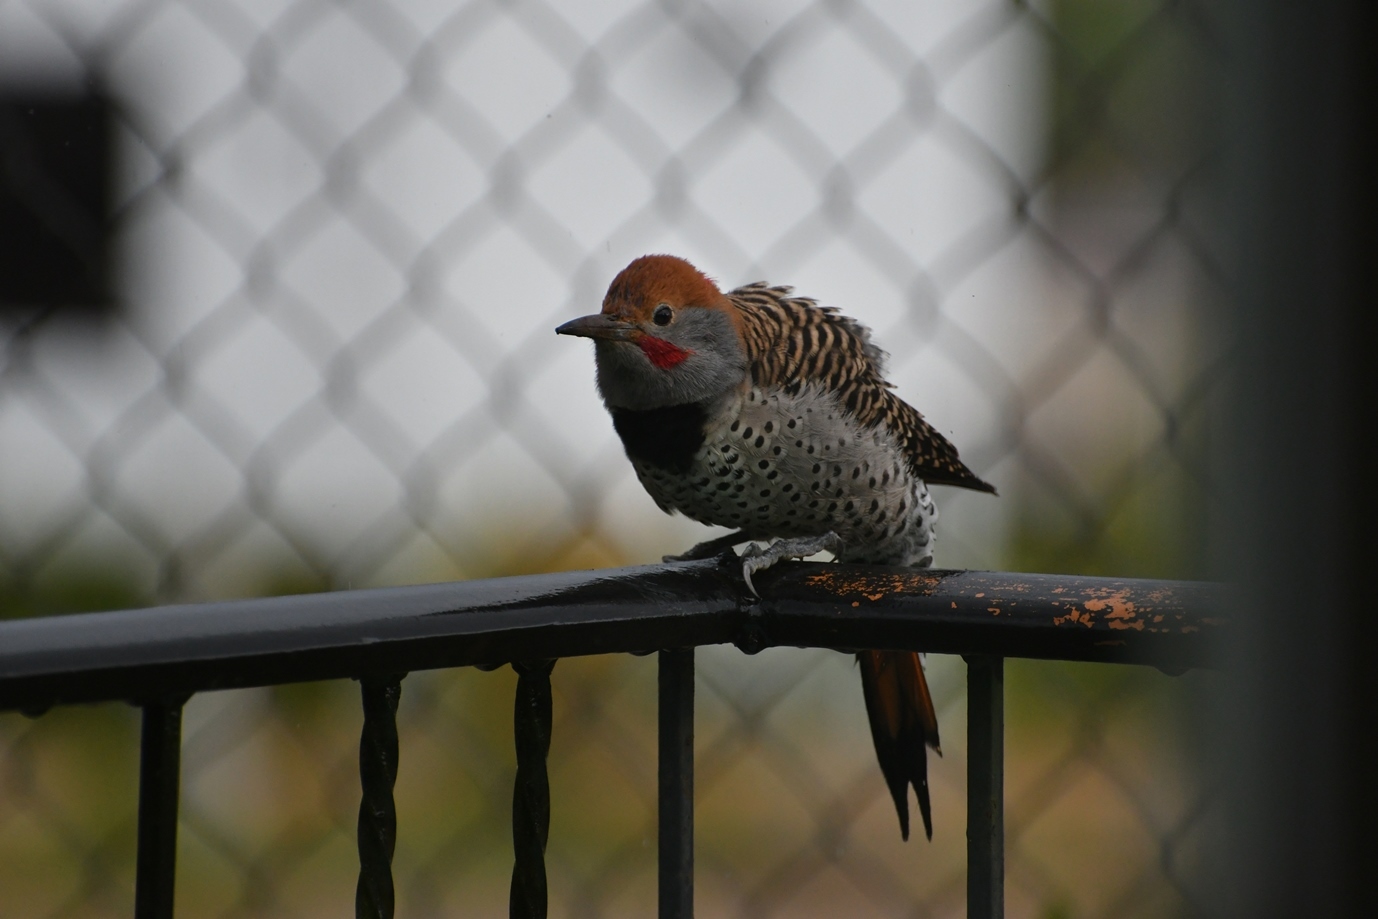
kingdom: Animalia
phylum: Chordata
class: Aves
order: Piciformes
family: Picidae
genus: Colaptes
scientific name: Colaptes auratus
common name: Northern flicker
